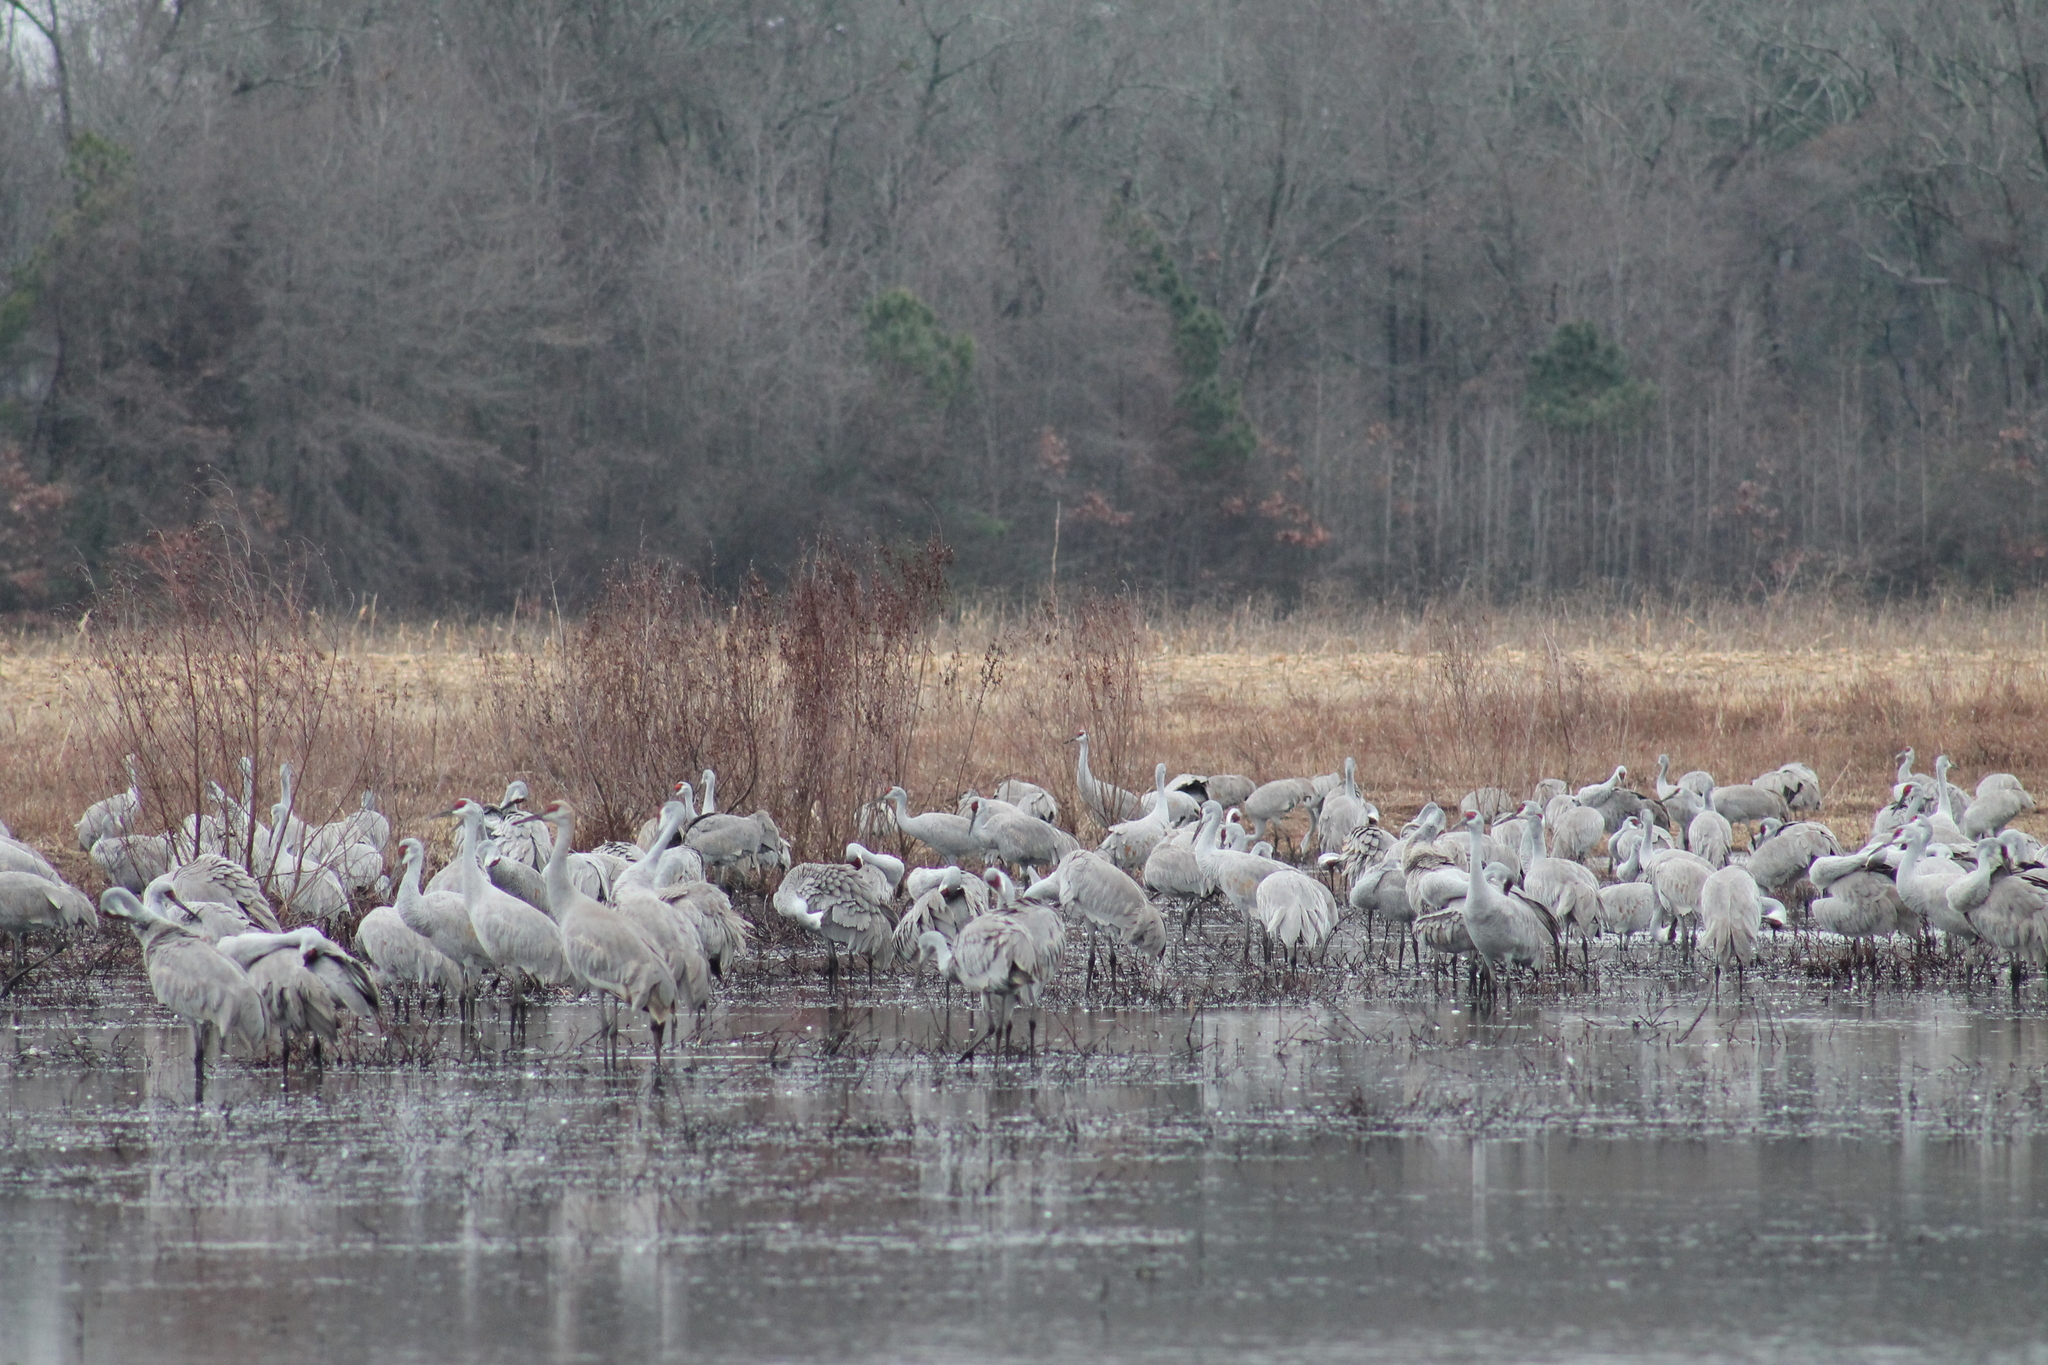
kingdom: Animalia
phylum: Chordata
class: Aves
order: Gruiformes
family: Gruidae
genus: Grus
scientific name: Grus canadensis
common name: Sandhill crane
